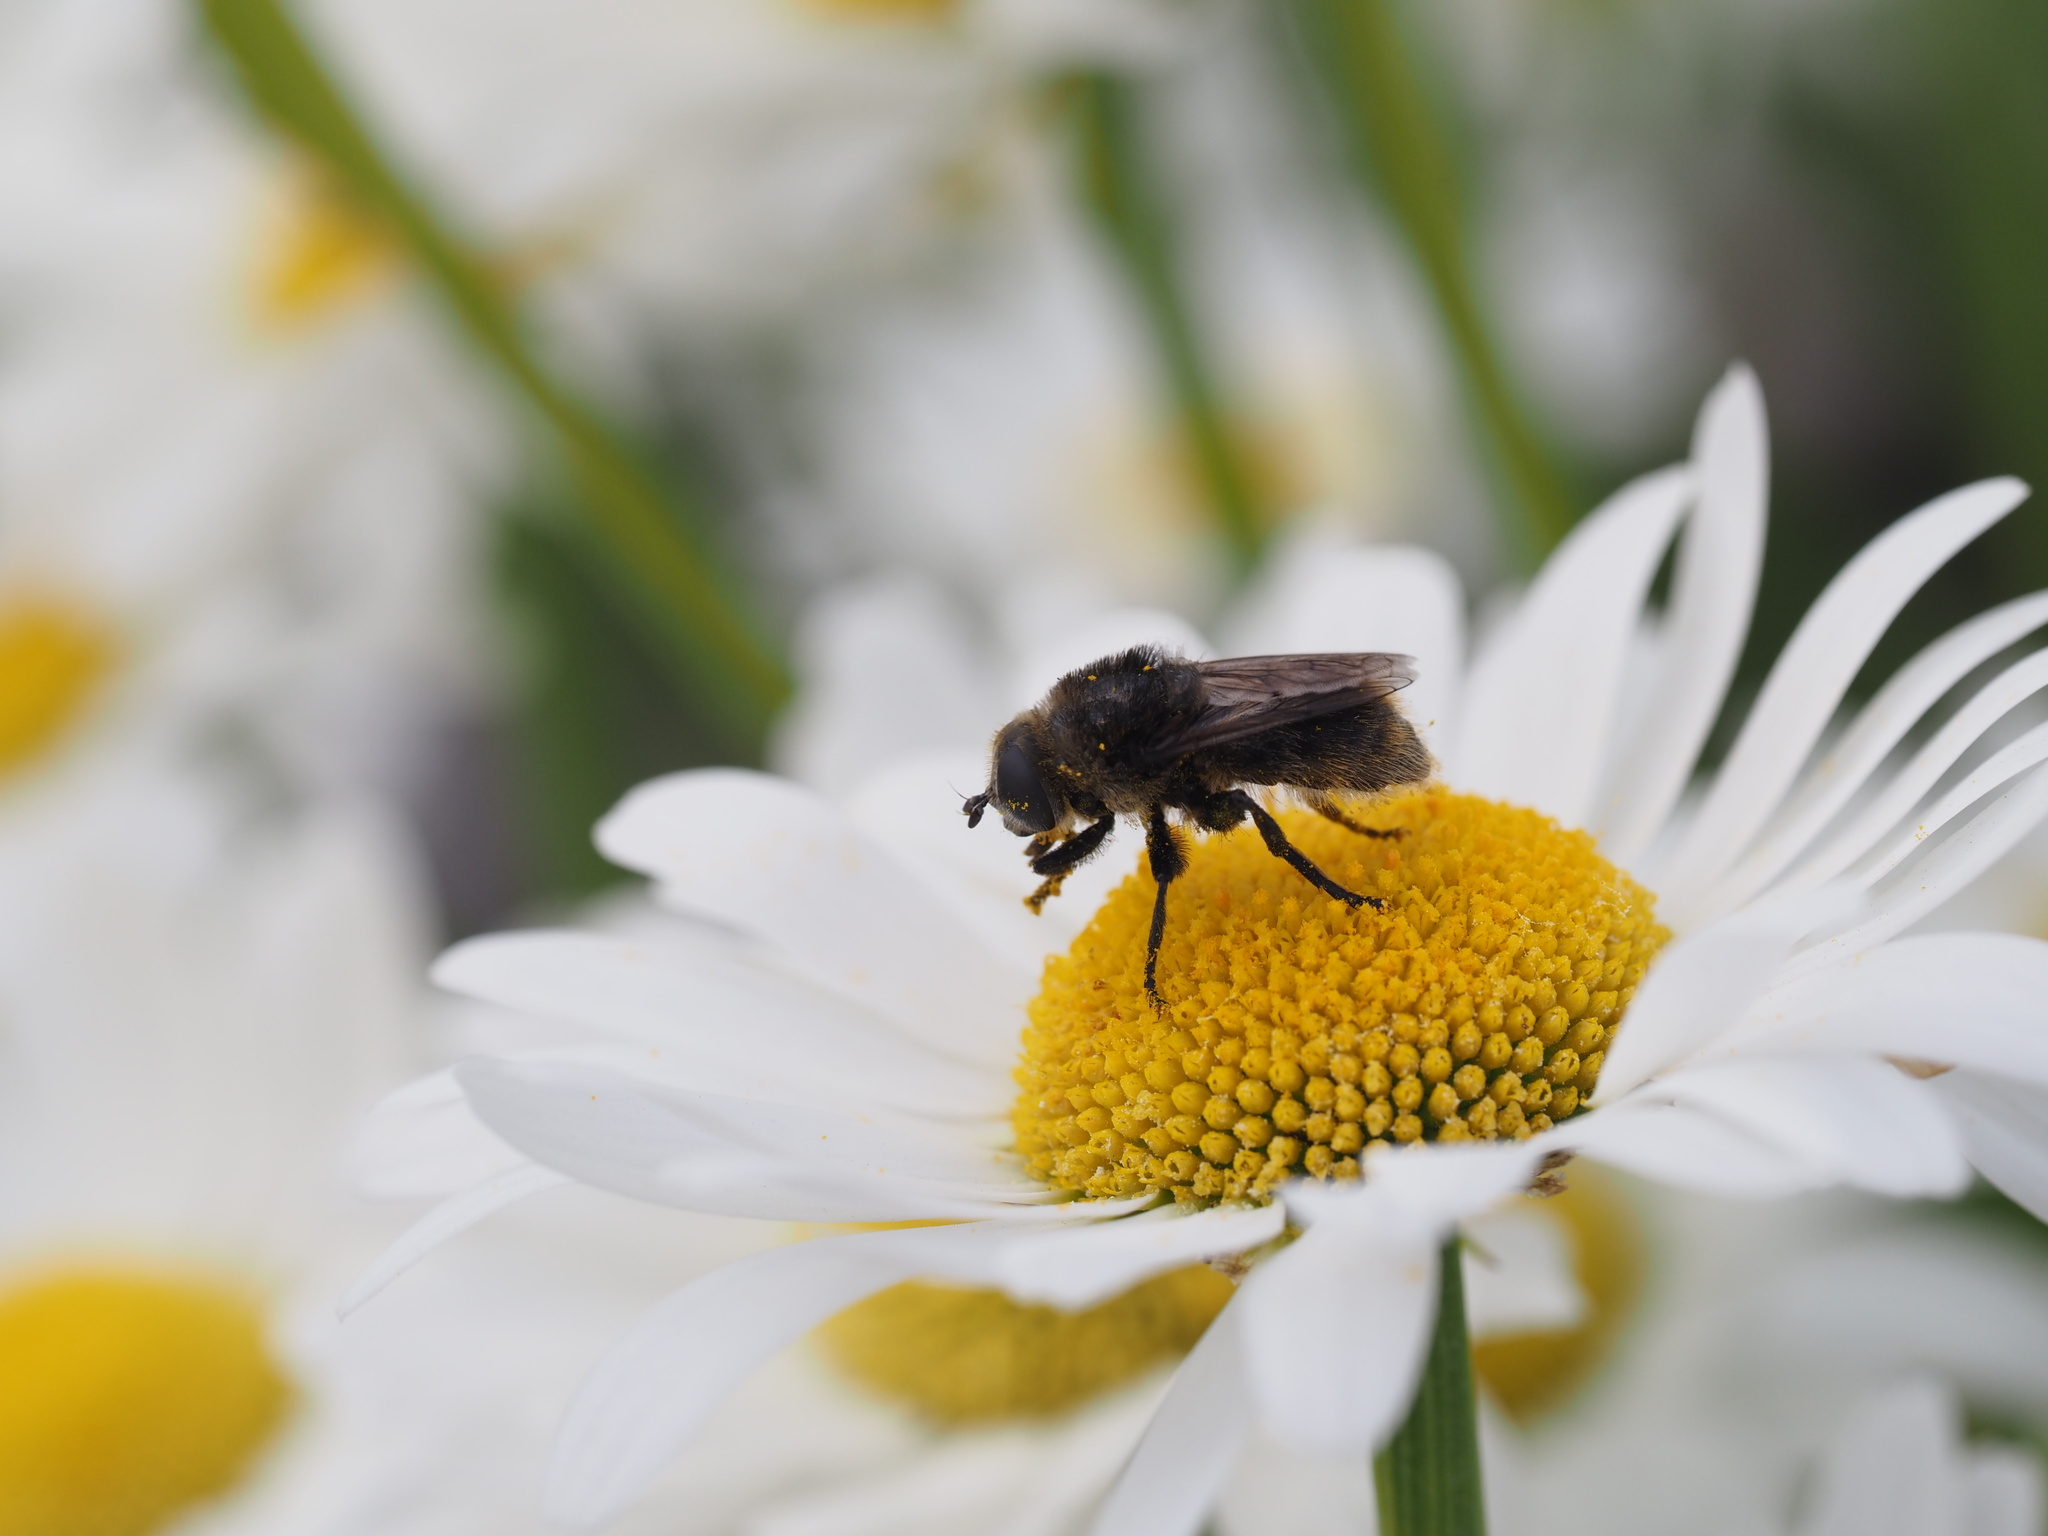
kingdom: Animalia
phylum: Arthropoda
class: Insecta
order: Diptera
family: Syrphidae
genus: Merodon
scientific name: Merodon equestris
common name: Greater bulb-fly
